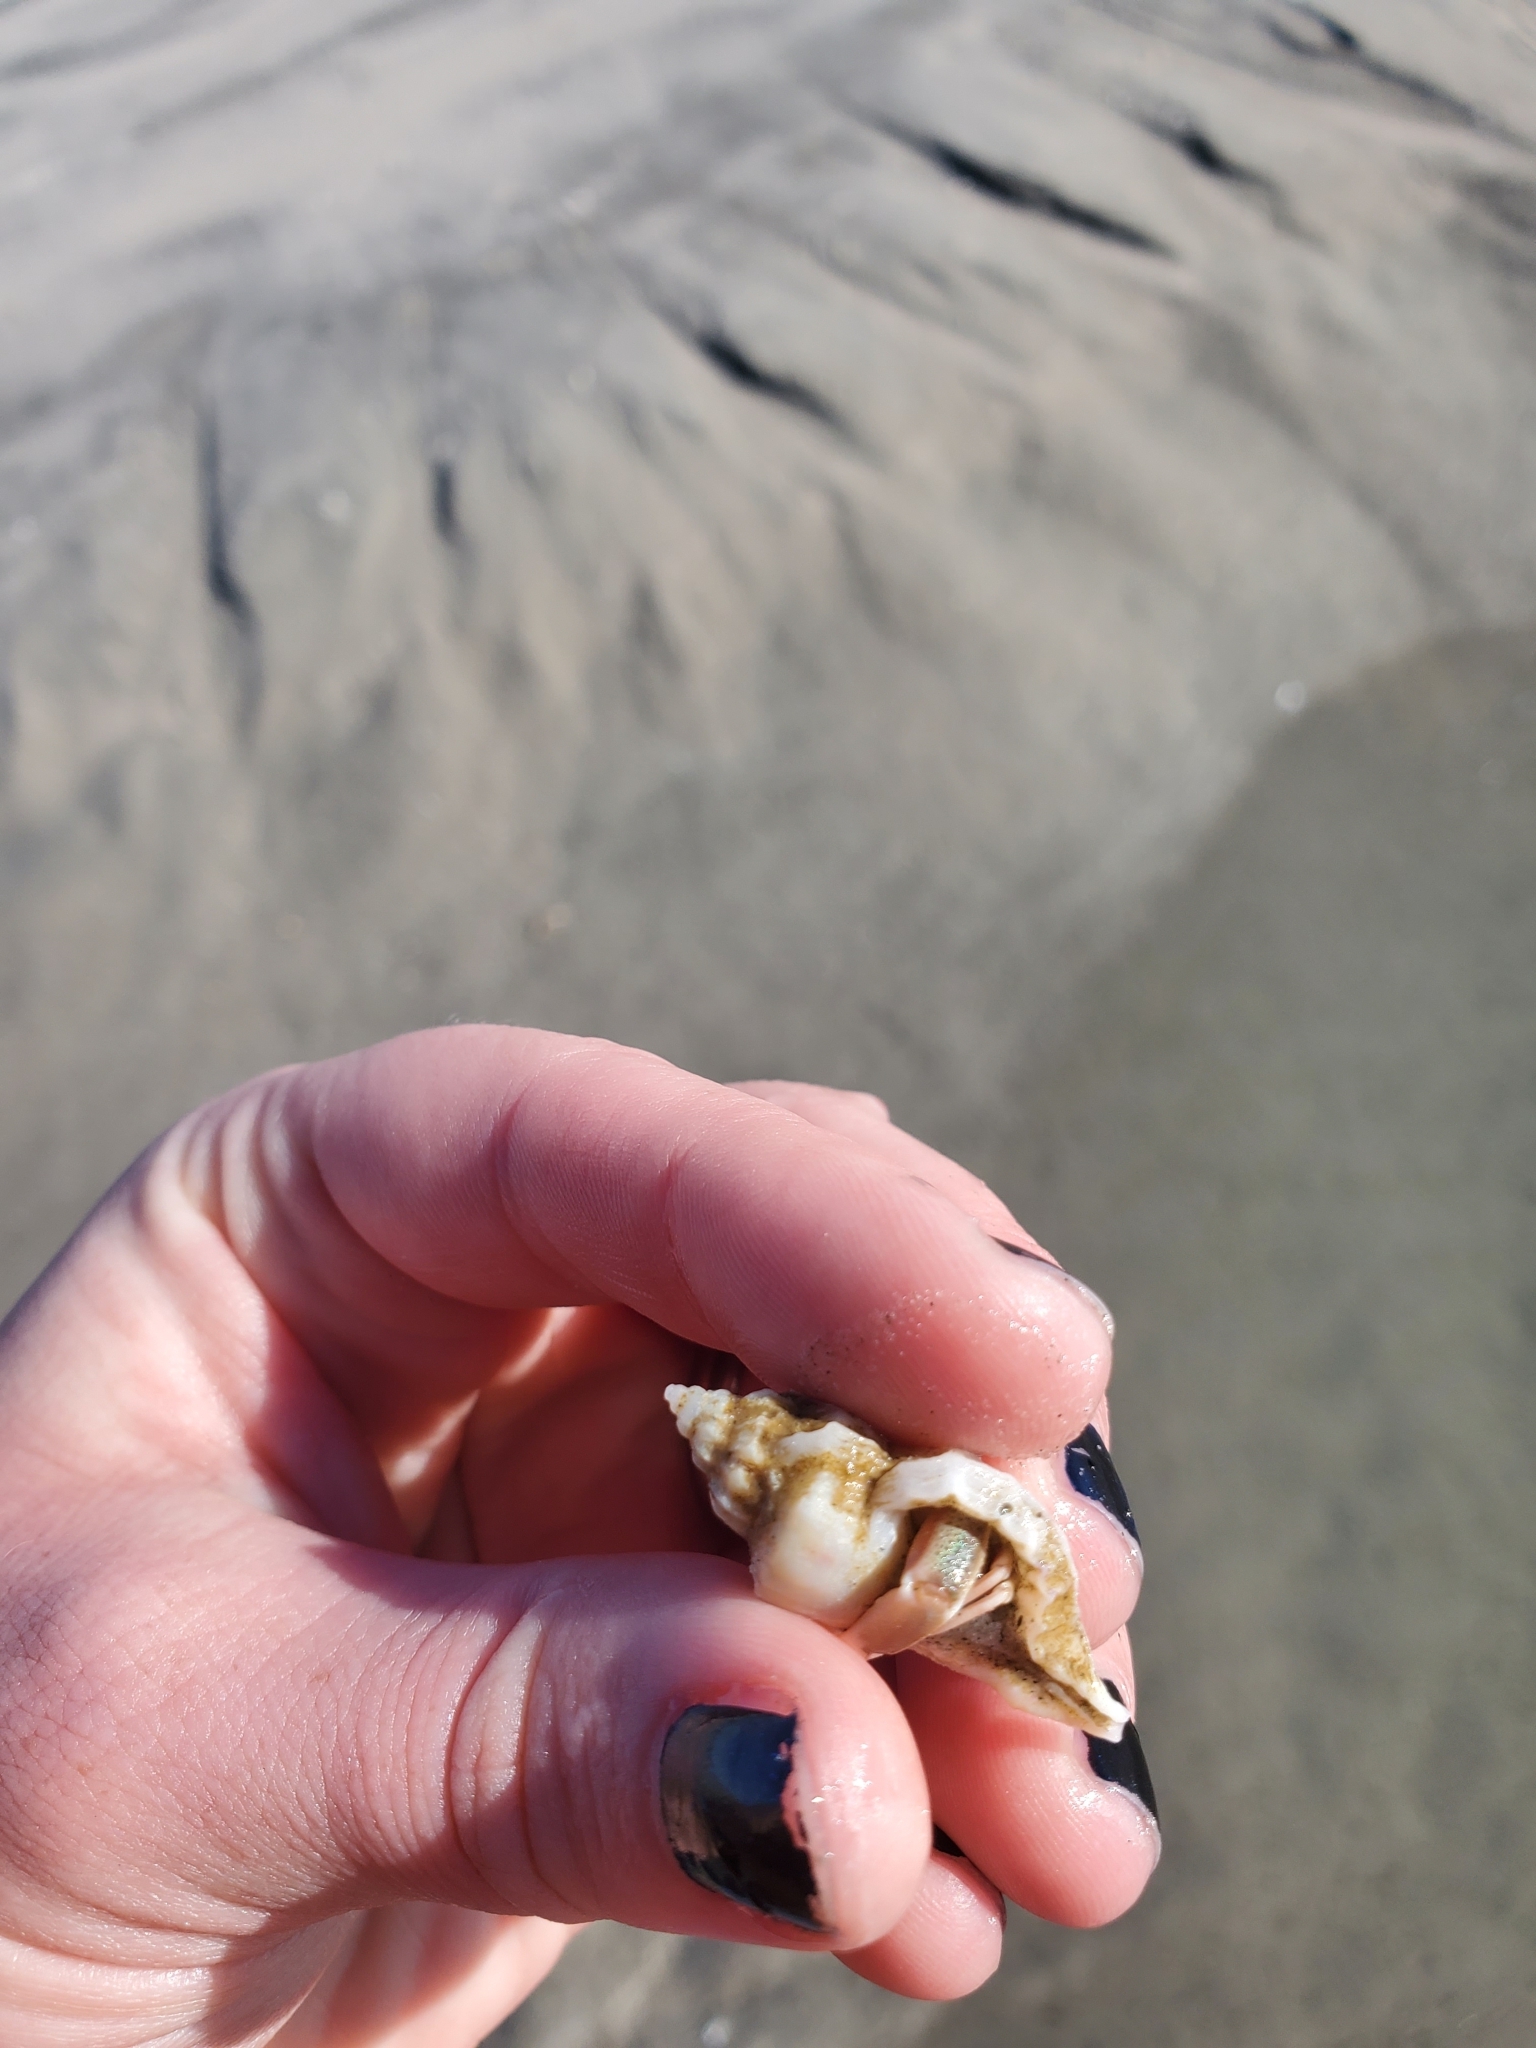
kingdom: Animalia
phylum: Arthropoda
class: Malacostraca
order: Decapoda
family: Paguridae
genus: Pagurus
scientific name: Pagurus longicarpus
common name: Long-armed hermit crab
